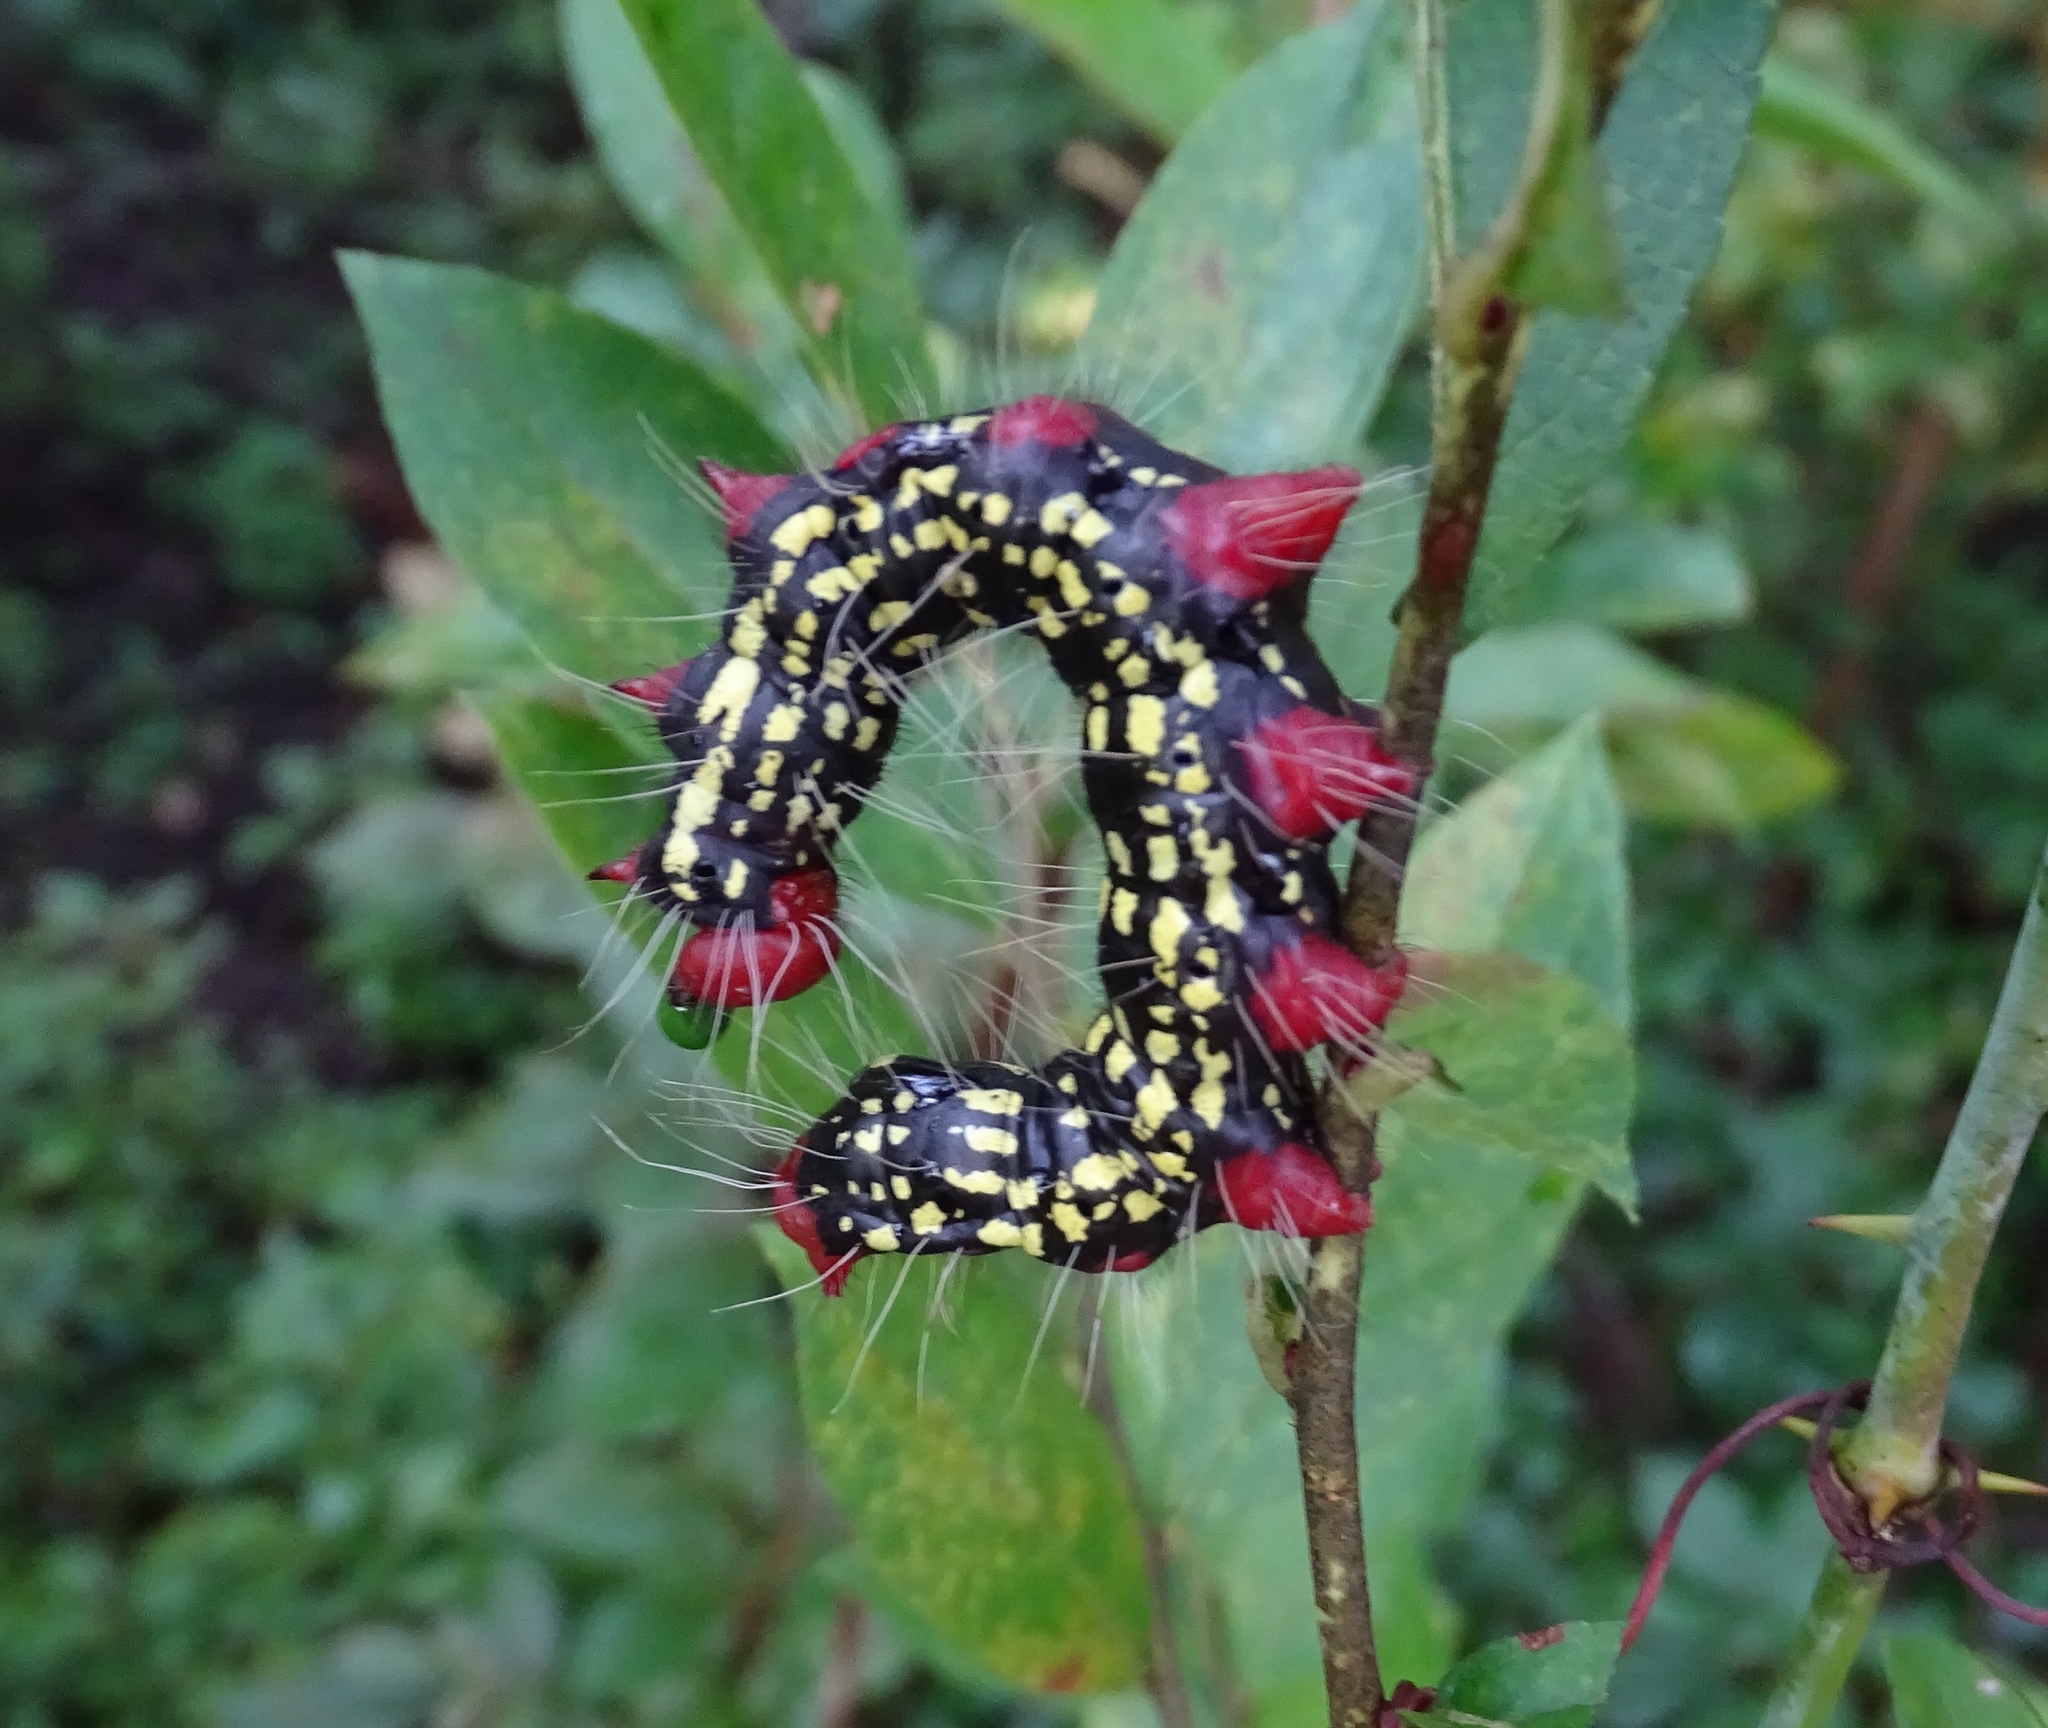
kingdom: Animalia
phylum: Arthropoda
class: Insecta
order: Lepidoptera
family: Notodontidae
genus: Datana
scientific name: Datana major
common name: Azalea caterpillar
